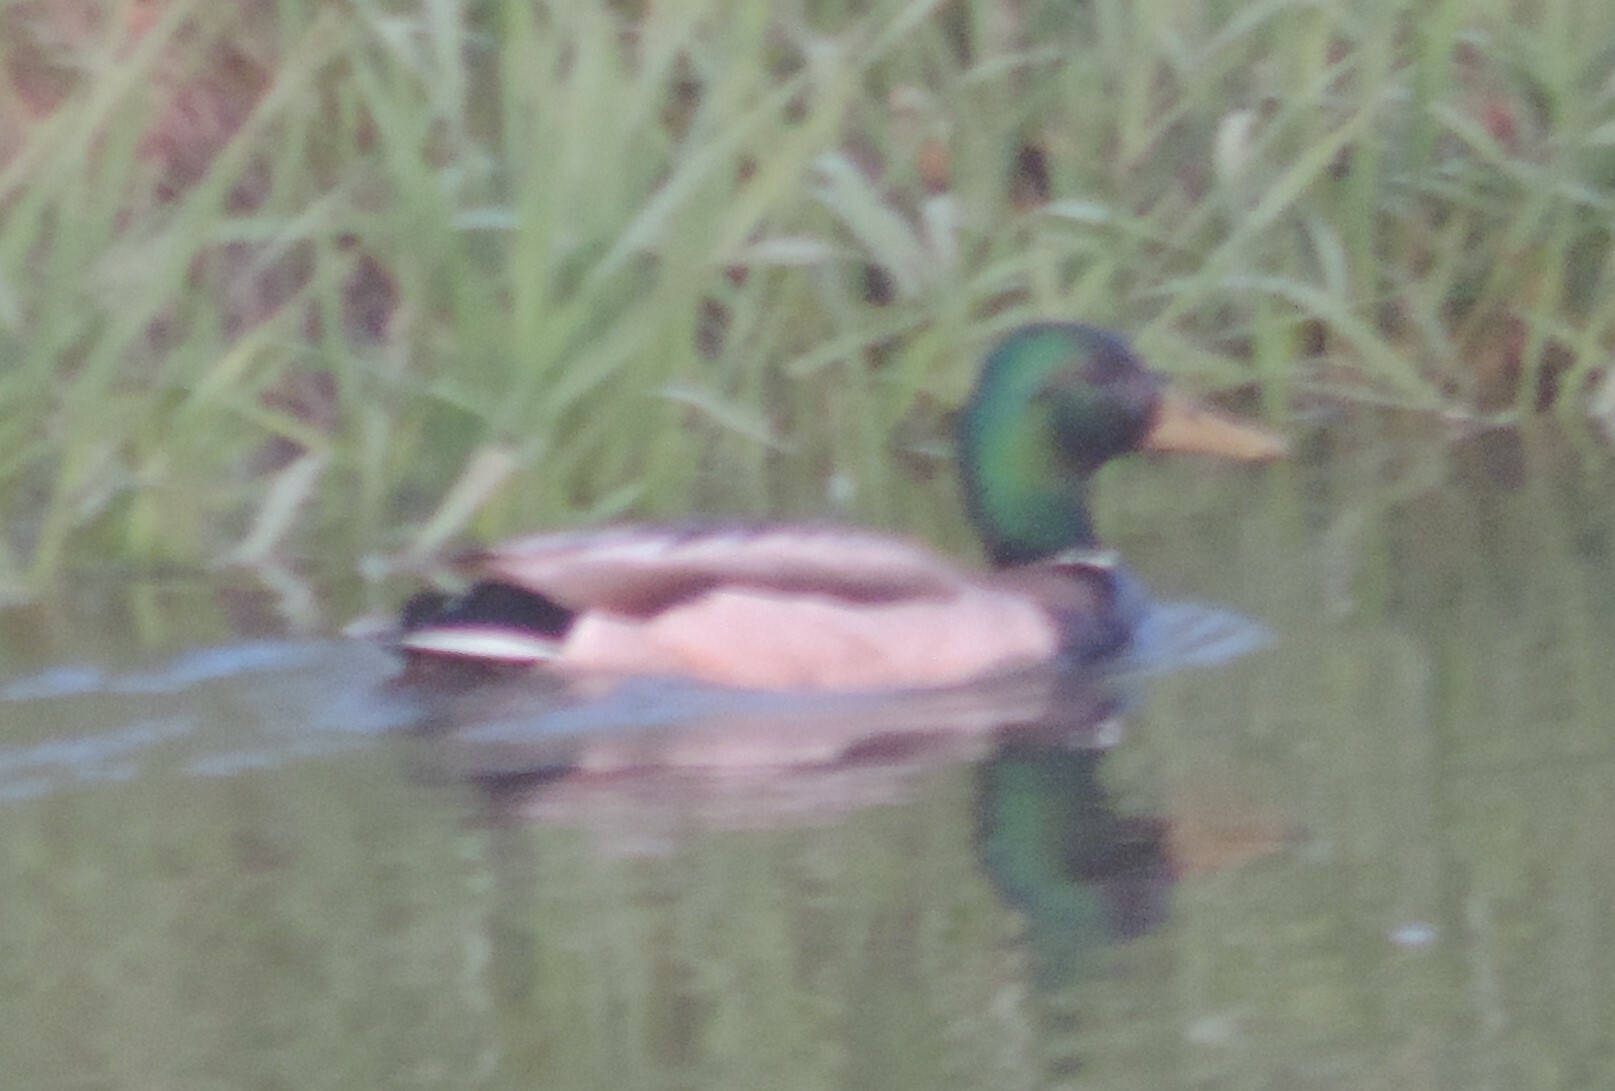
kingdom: Animalia
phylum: Chordata
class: Aves
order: Anseriformes
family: Anatidae
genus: Anas
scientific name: Anas platyrhynchos
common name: Mallard
